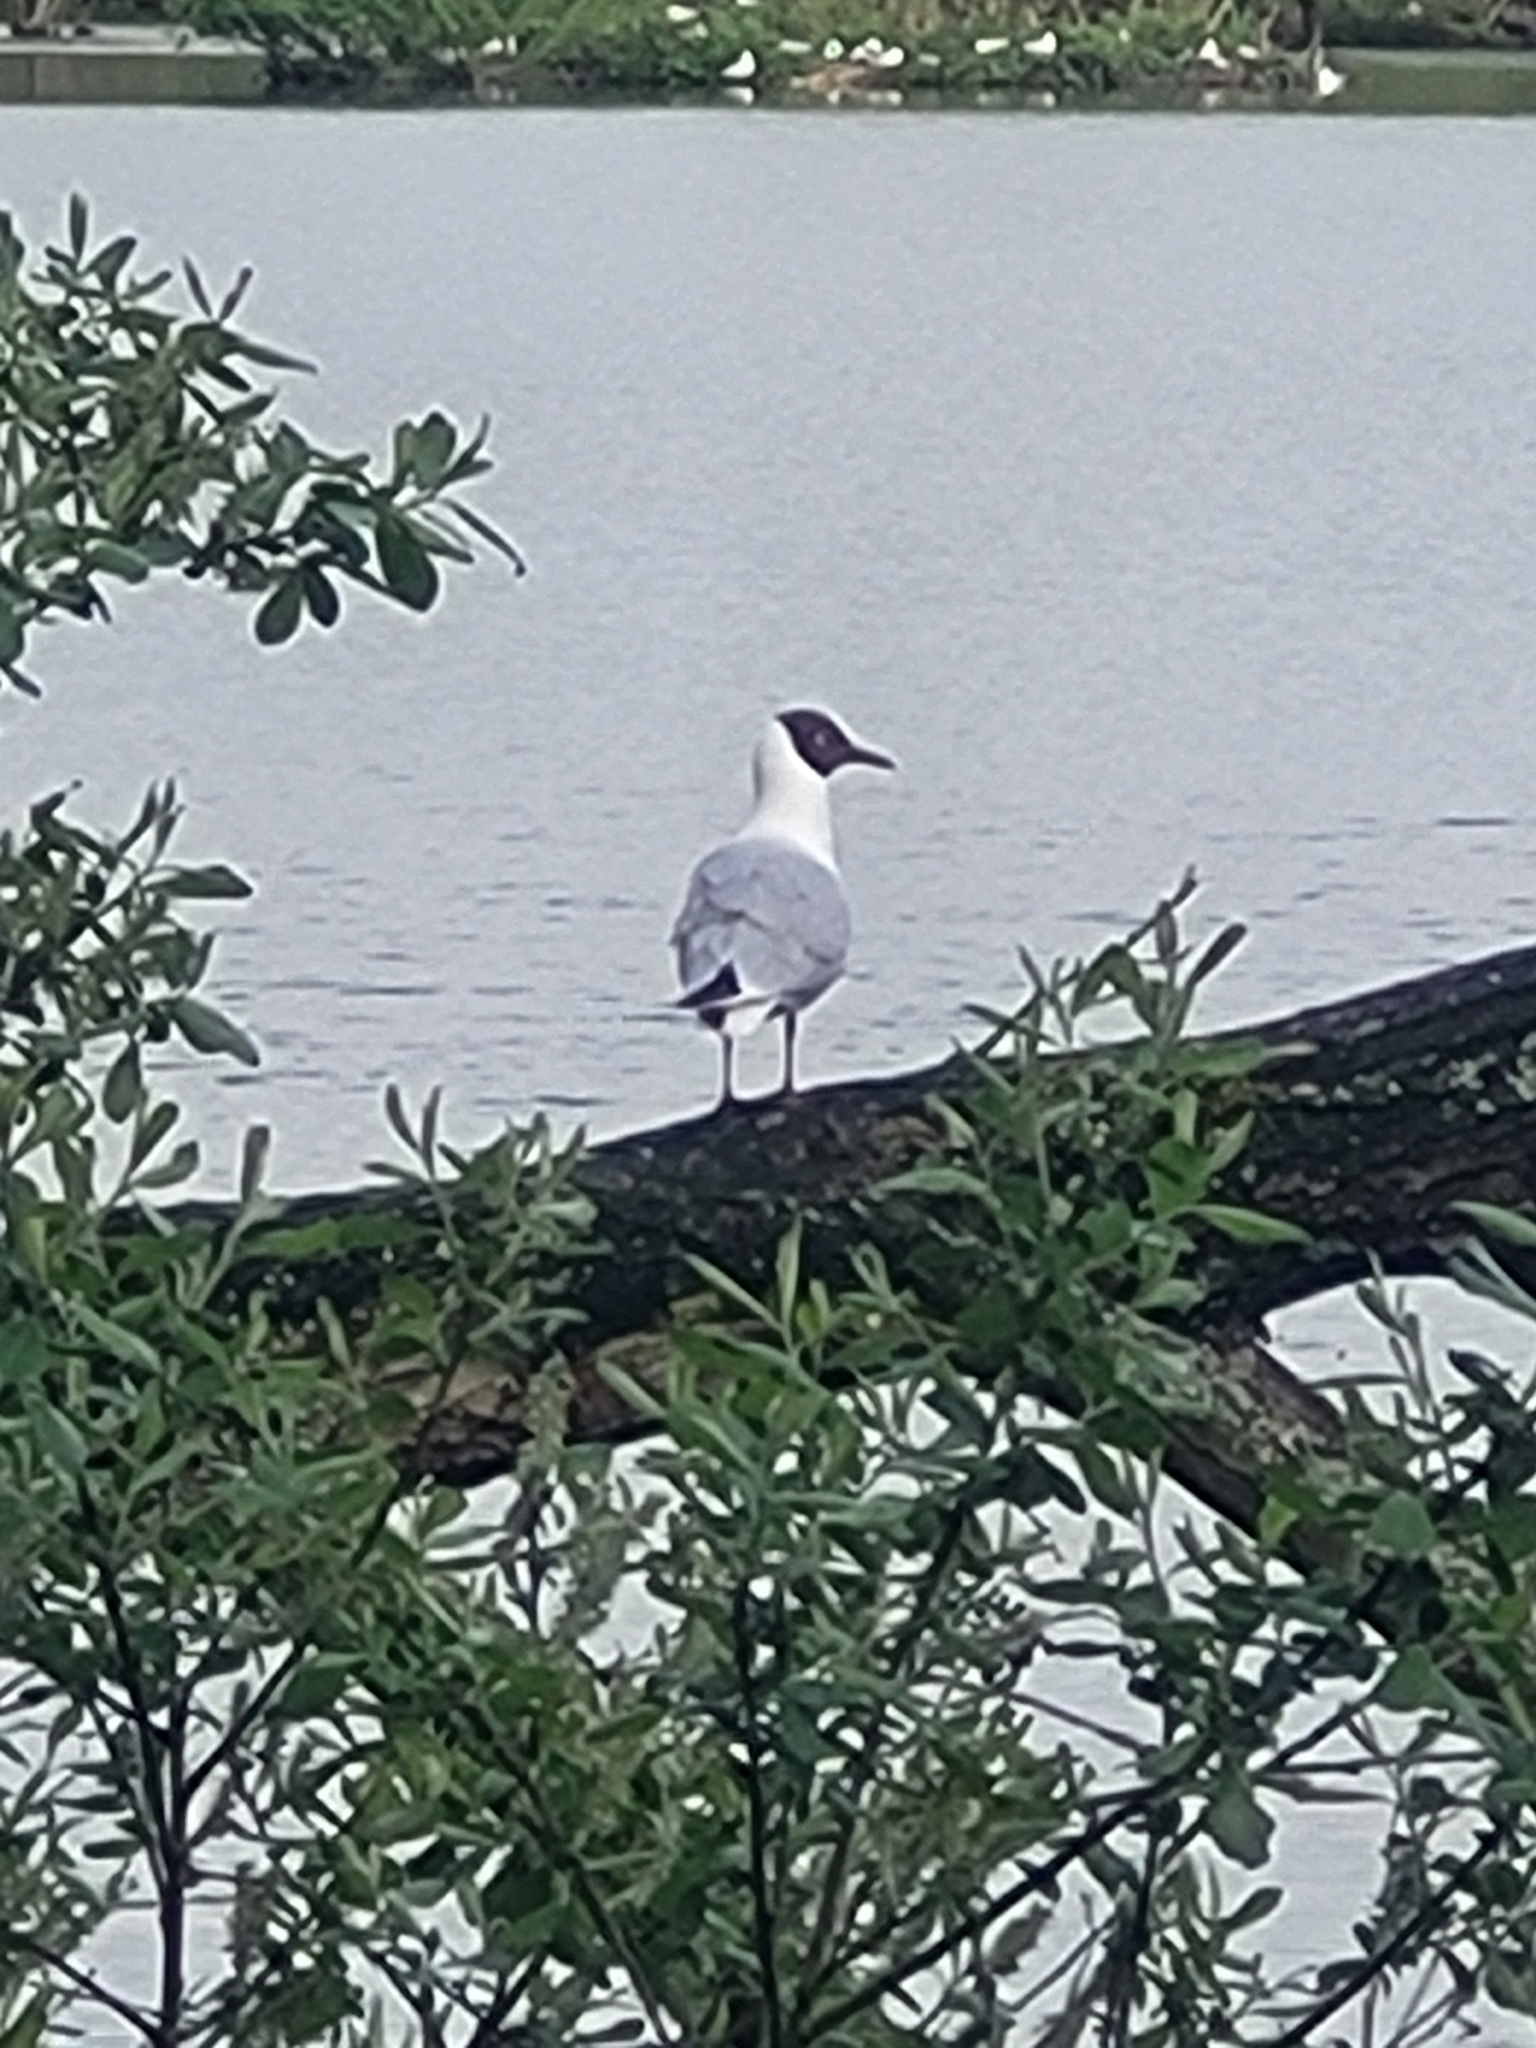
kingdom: Animalia
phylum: Chordata
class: Aves
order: Charadriiformes
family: Laridae
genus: Chroicocephalus
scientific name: Chroicocephalus ridibundus
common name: Black-headed gull
